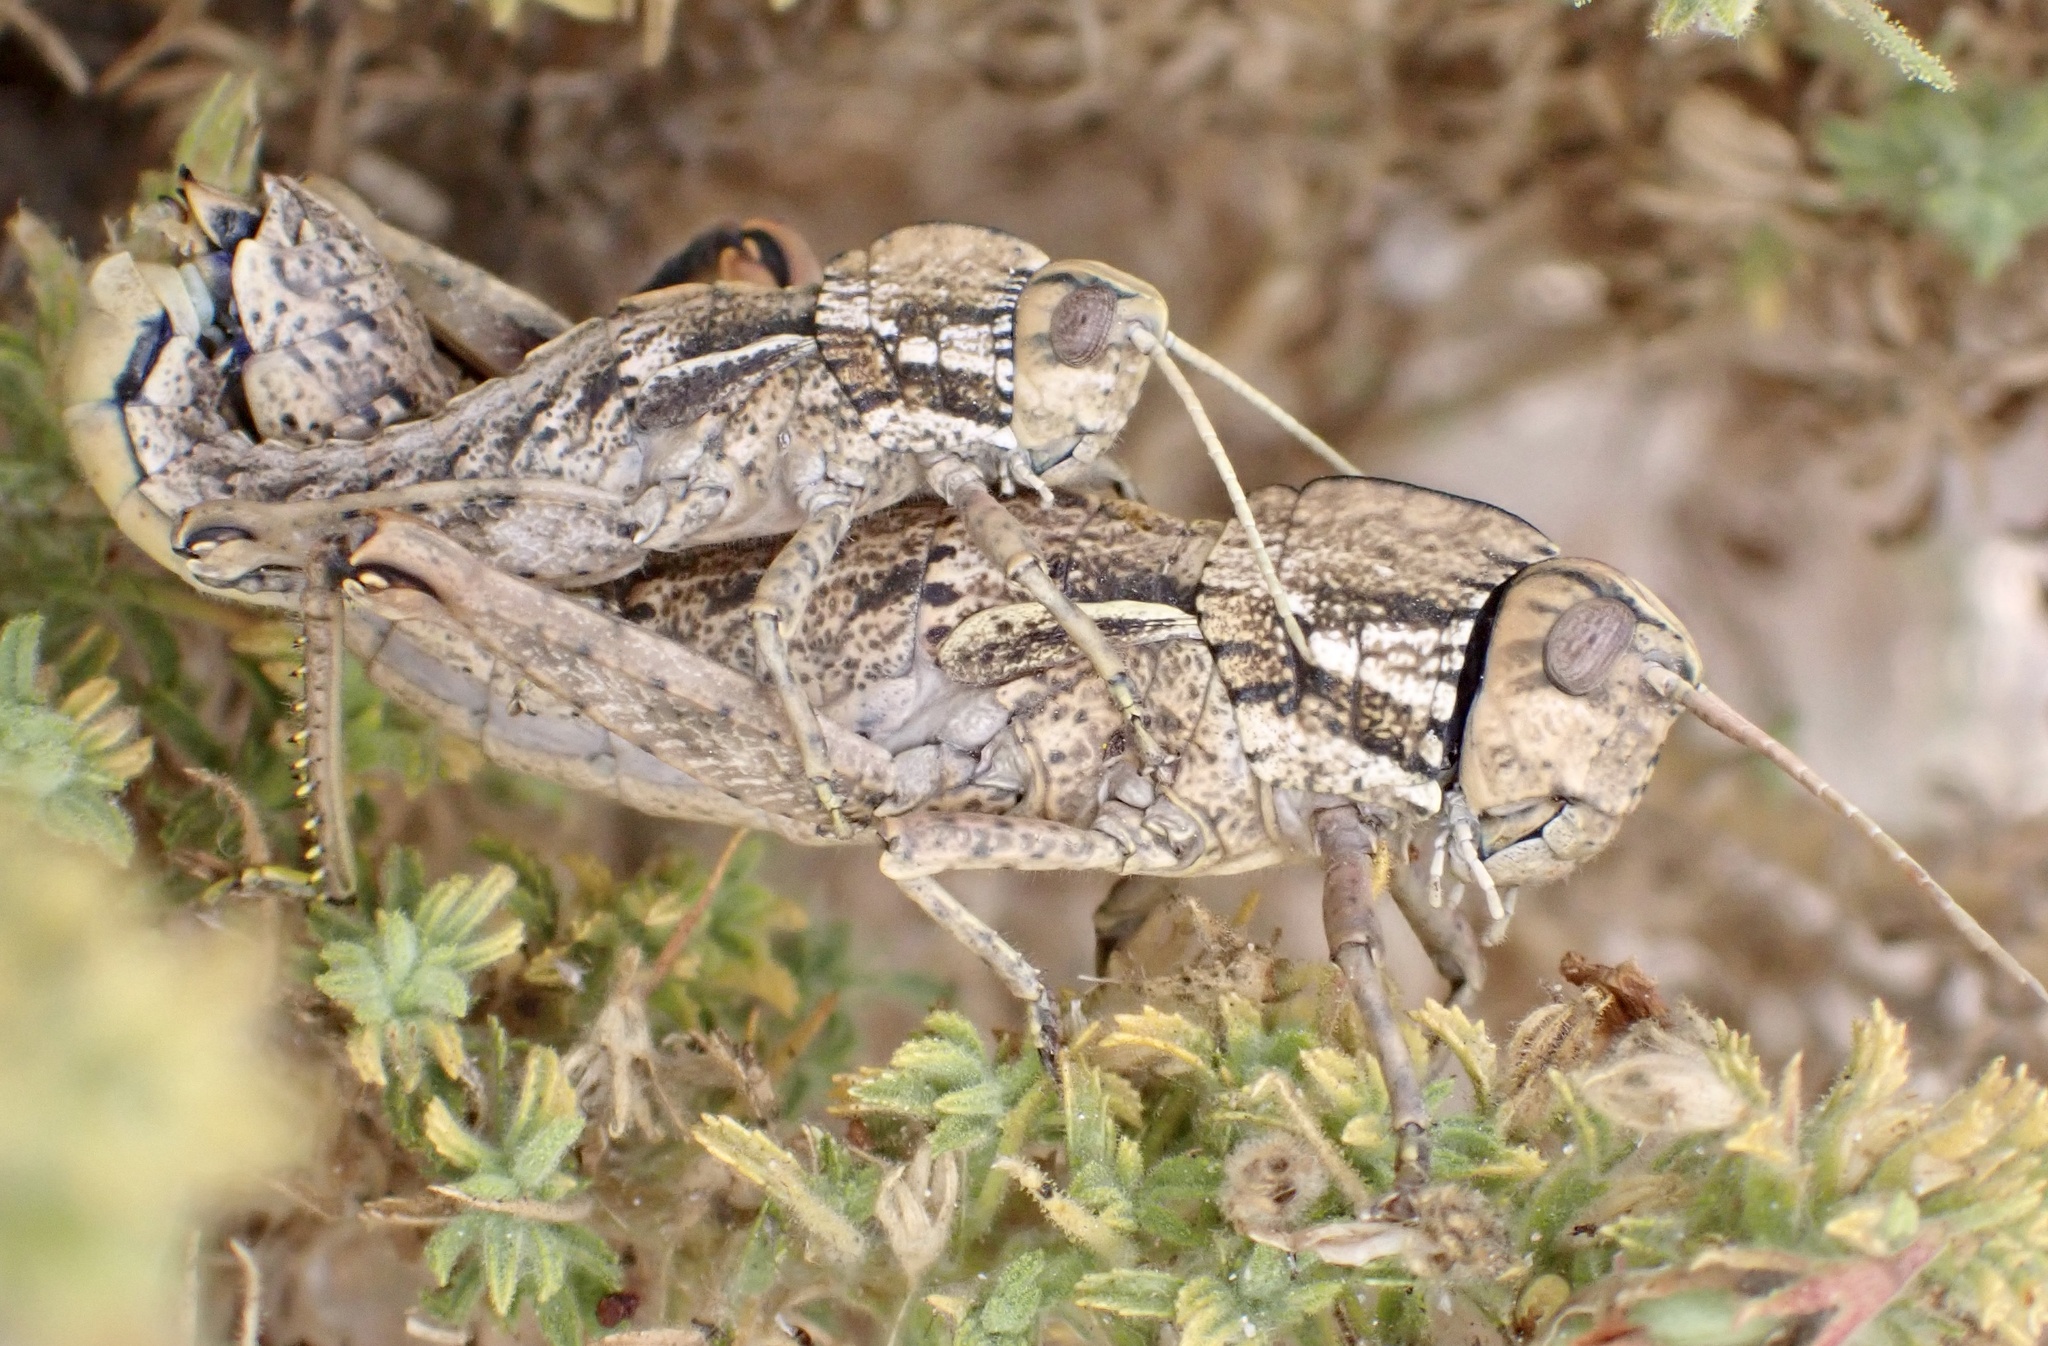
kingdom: Animalia
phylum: Arthropoda
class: Insecta
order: Orthoptera
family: Pamphagidae
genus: Paracinipe
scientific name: Paracinipe mauritanica
